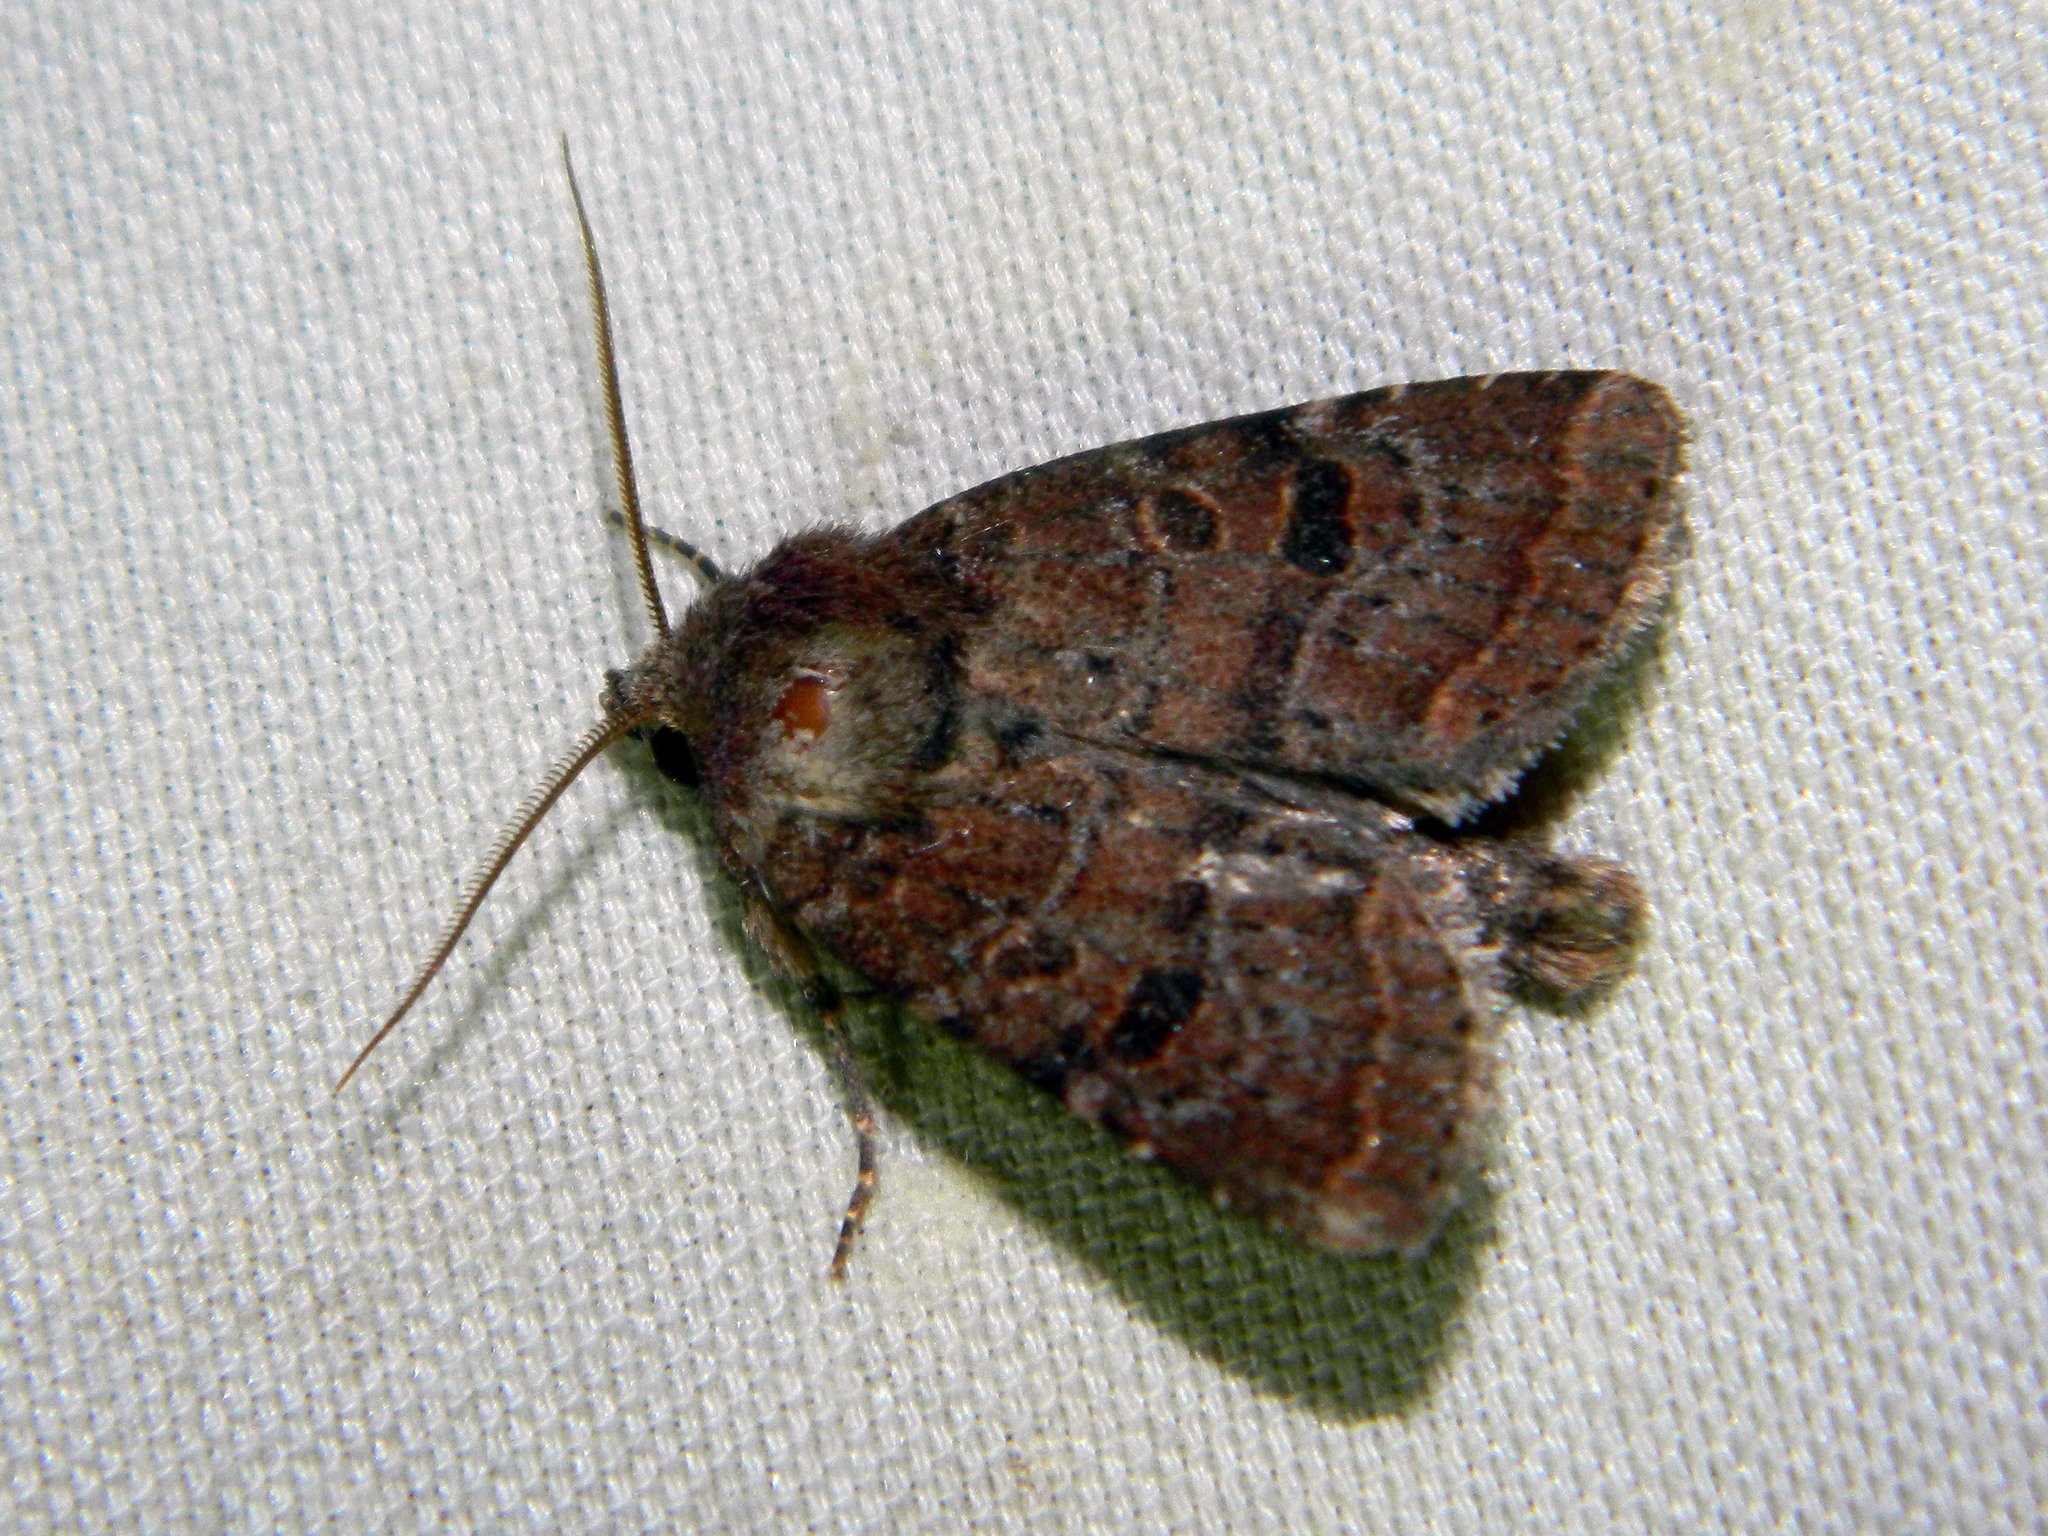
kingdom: Animalia
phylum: Arthropoda
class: Insecta
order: Lepidoptera
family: Noctuidae
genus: Trichopolia
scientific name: Trichopolia
